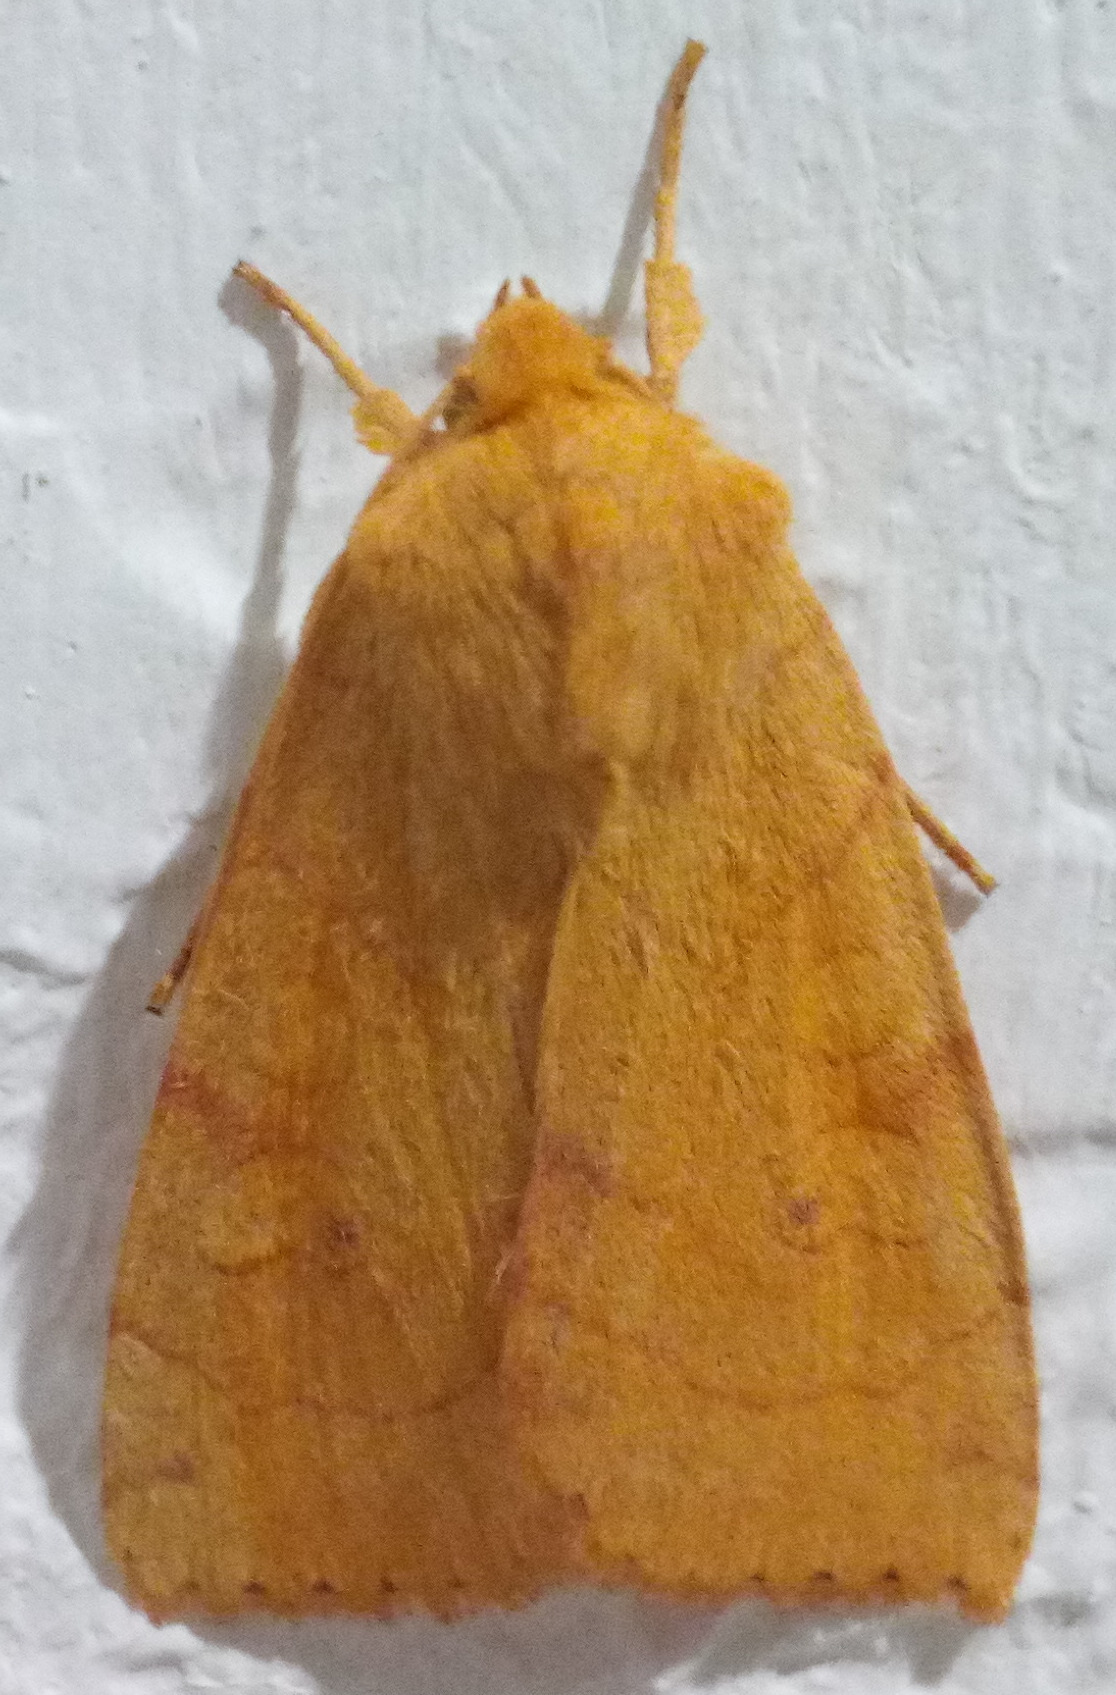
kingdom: Animalia
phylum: Arthropoda
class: Insecta
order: Lepidoptera
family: Noctuidae
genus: Enargia
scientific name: Enargia paleacea
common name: Angle-striped sallow
